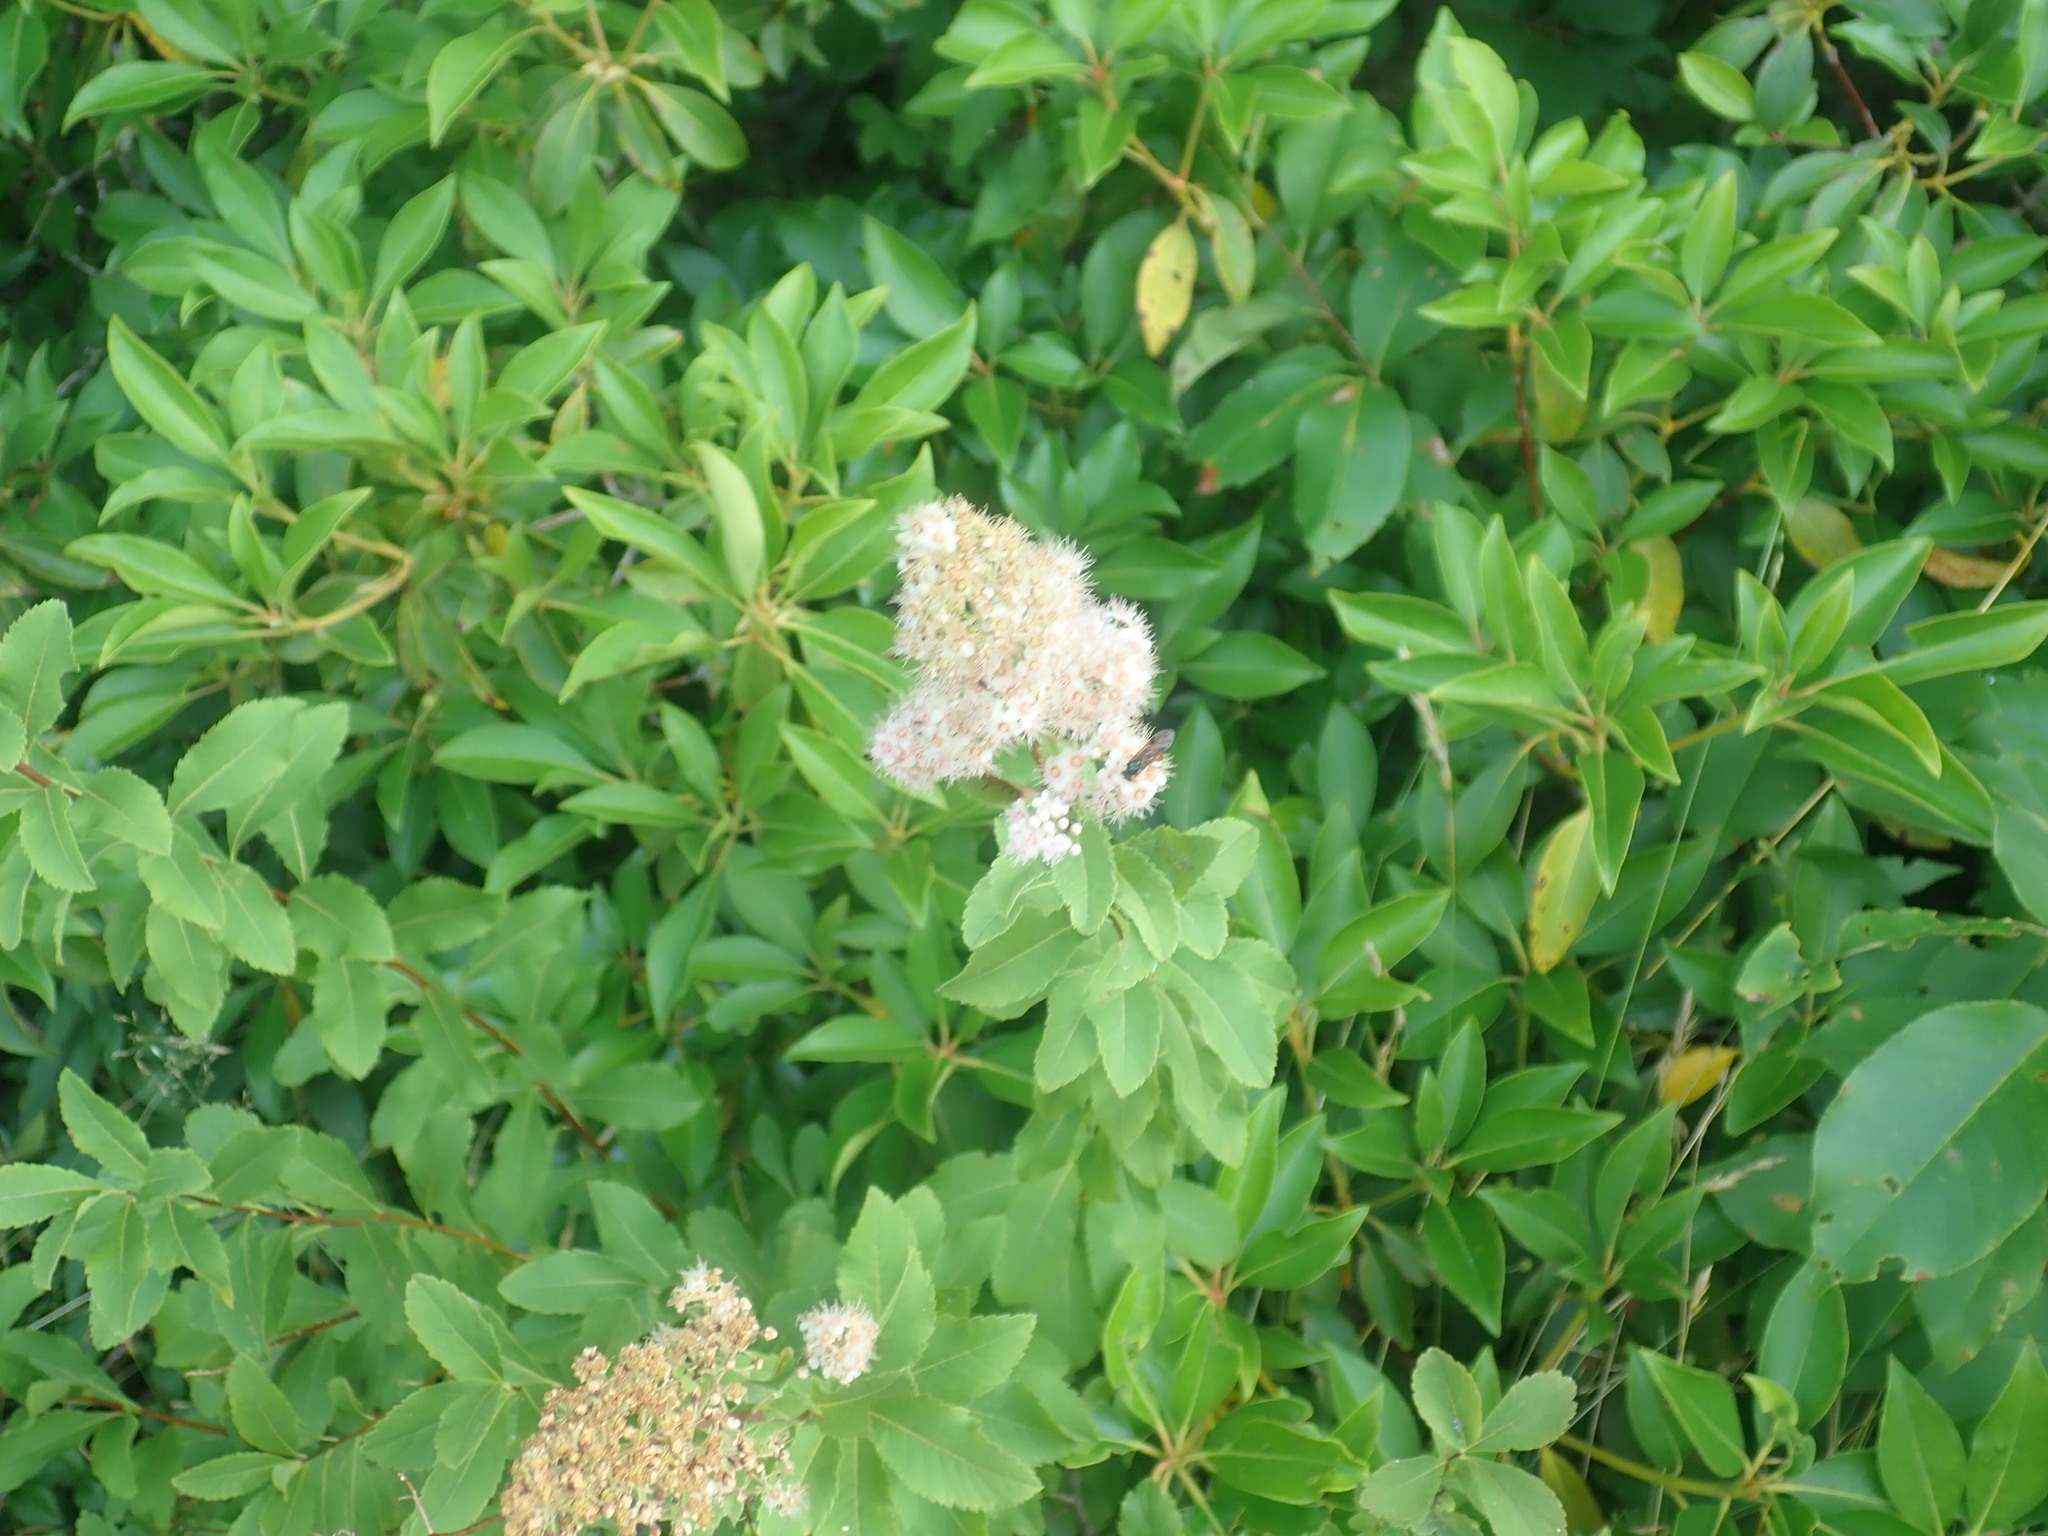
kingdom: Plantae
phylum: Tracheophyta
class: Magnoliopsida
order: Rosales
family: Rosaceae
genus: Spiraea
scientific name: Spiraea alba
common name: Pale bridewort
